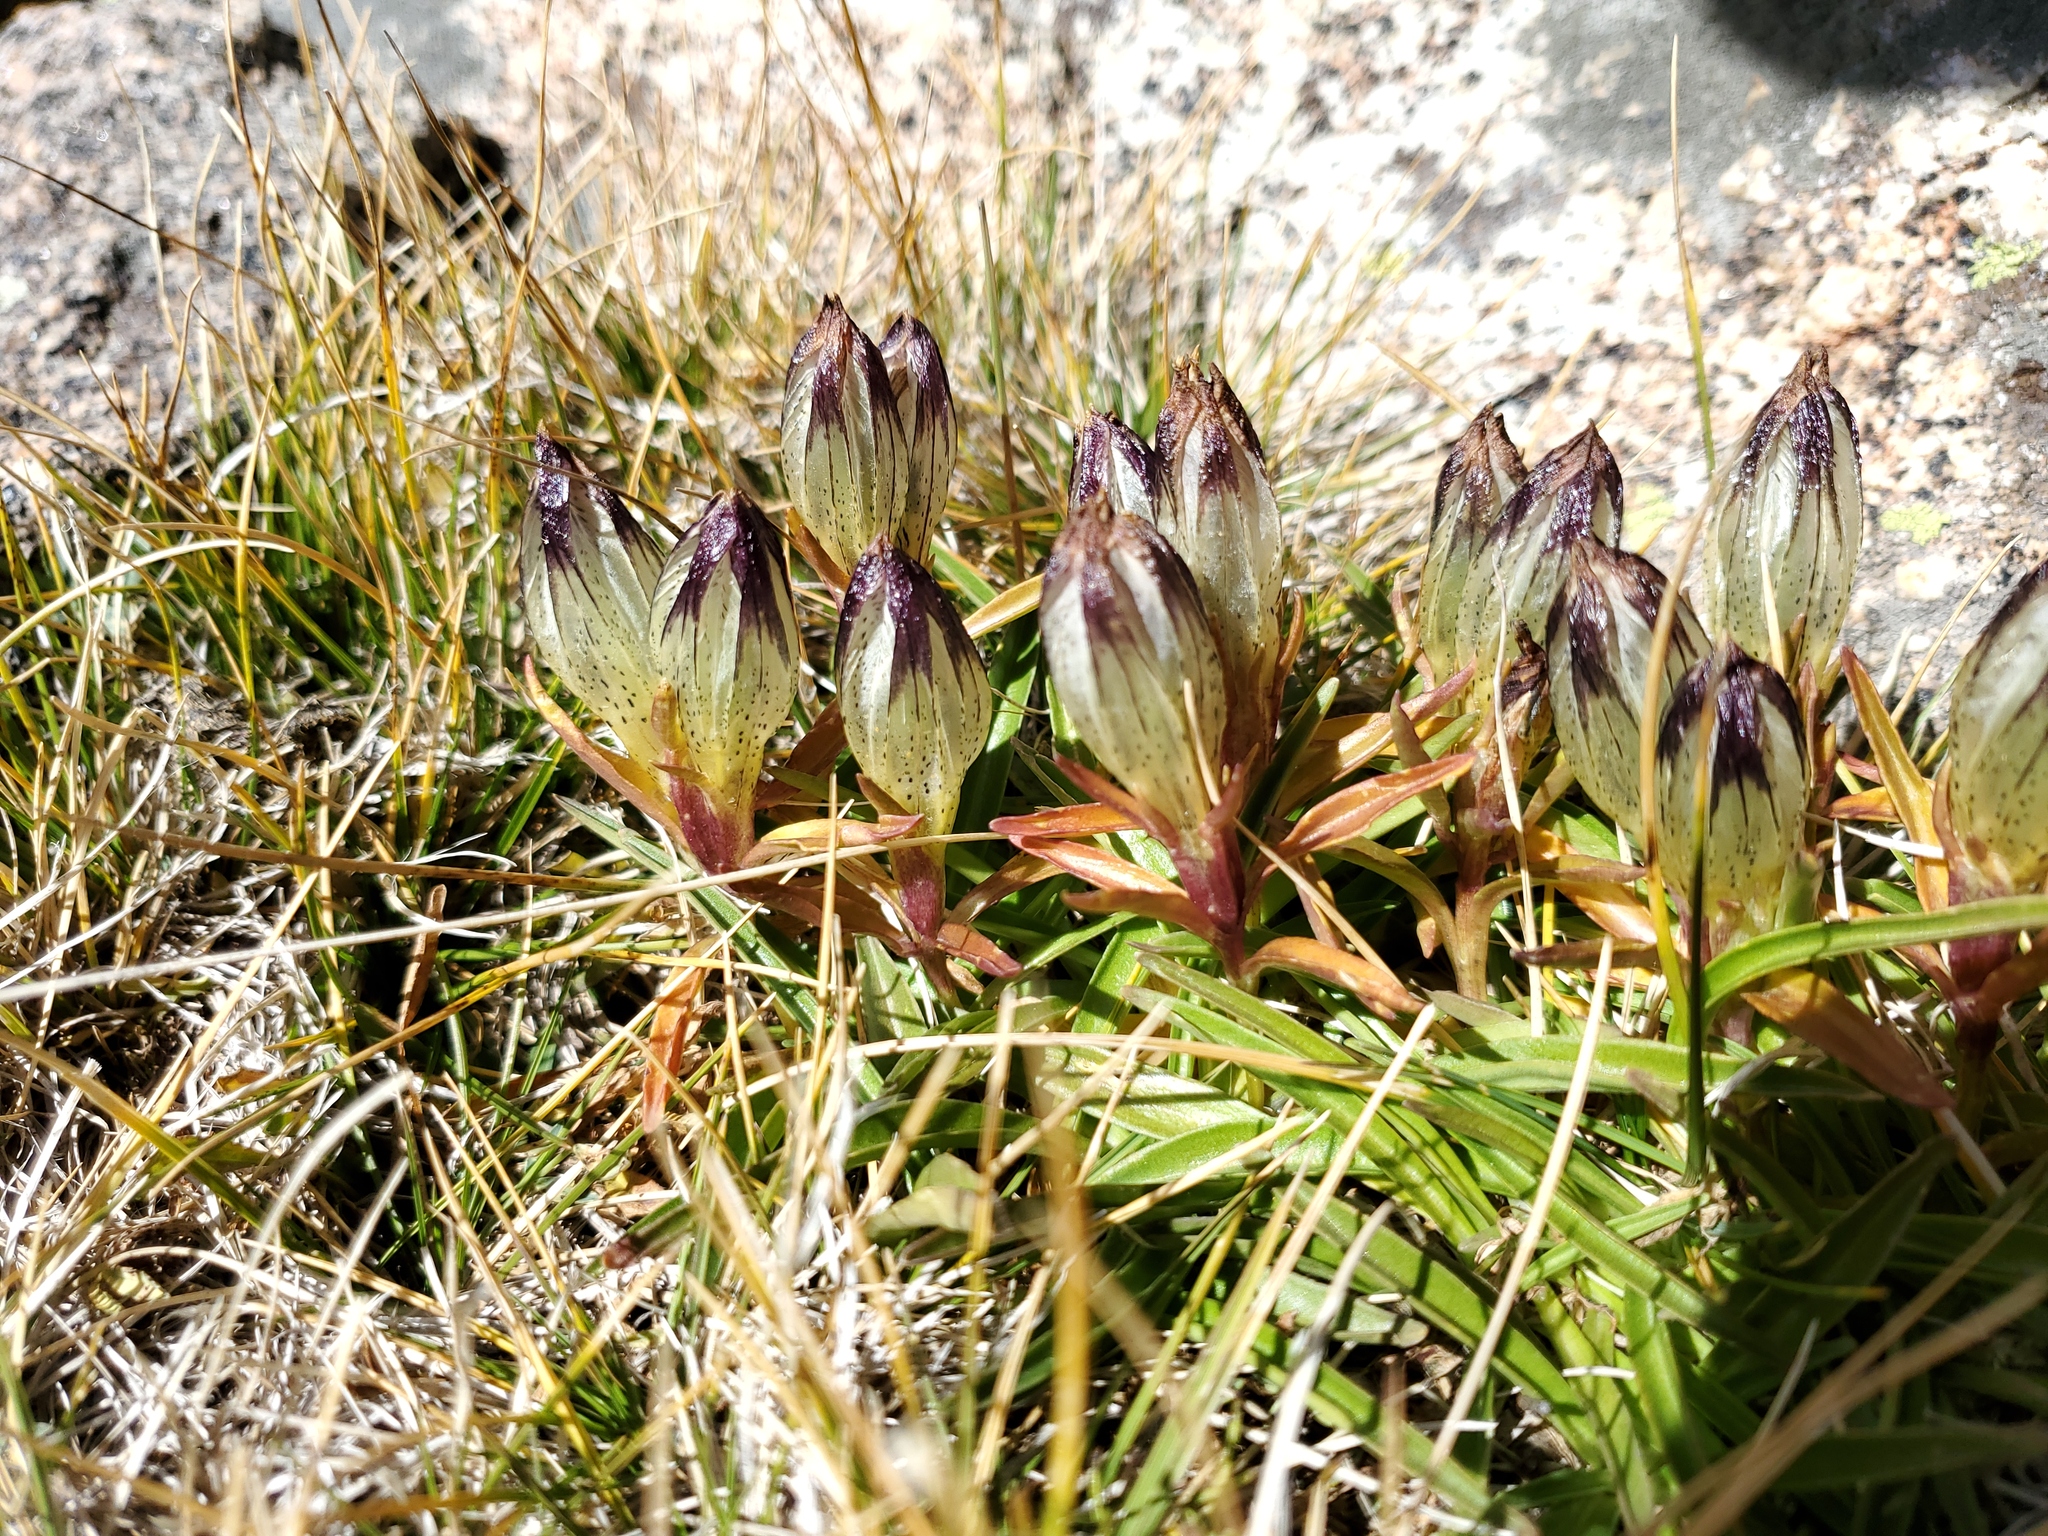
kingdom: Plantae
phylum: Tracheophyta
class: Magnoliopsida
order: Gentianales
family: Gentianaceae
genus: Gentiana
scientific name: Gentiana algida
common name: Arctic gentian
